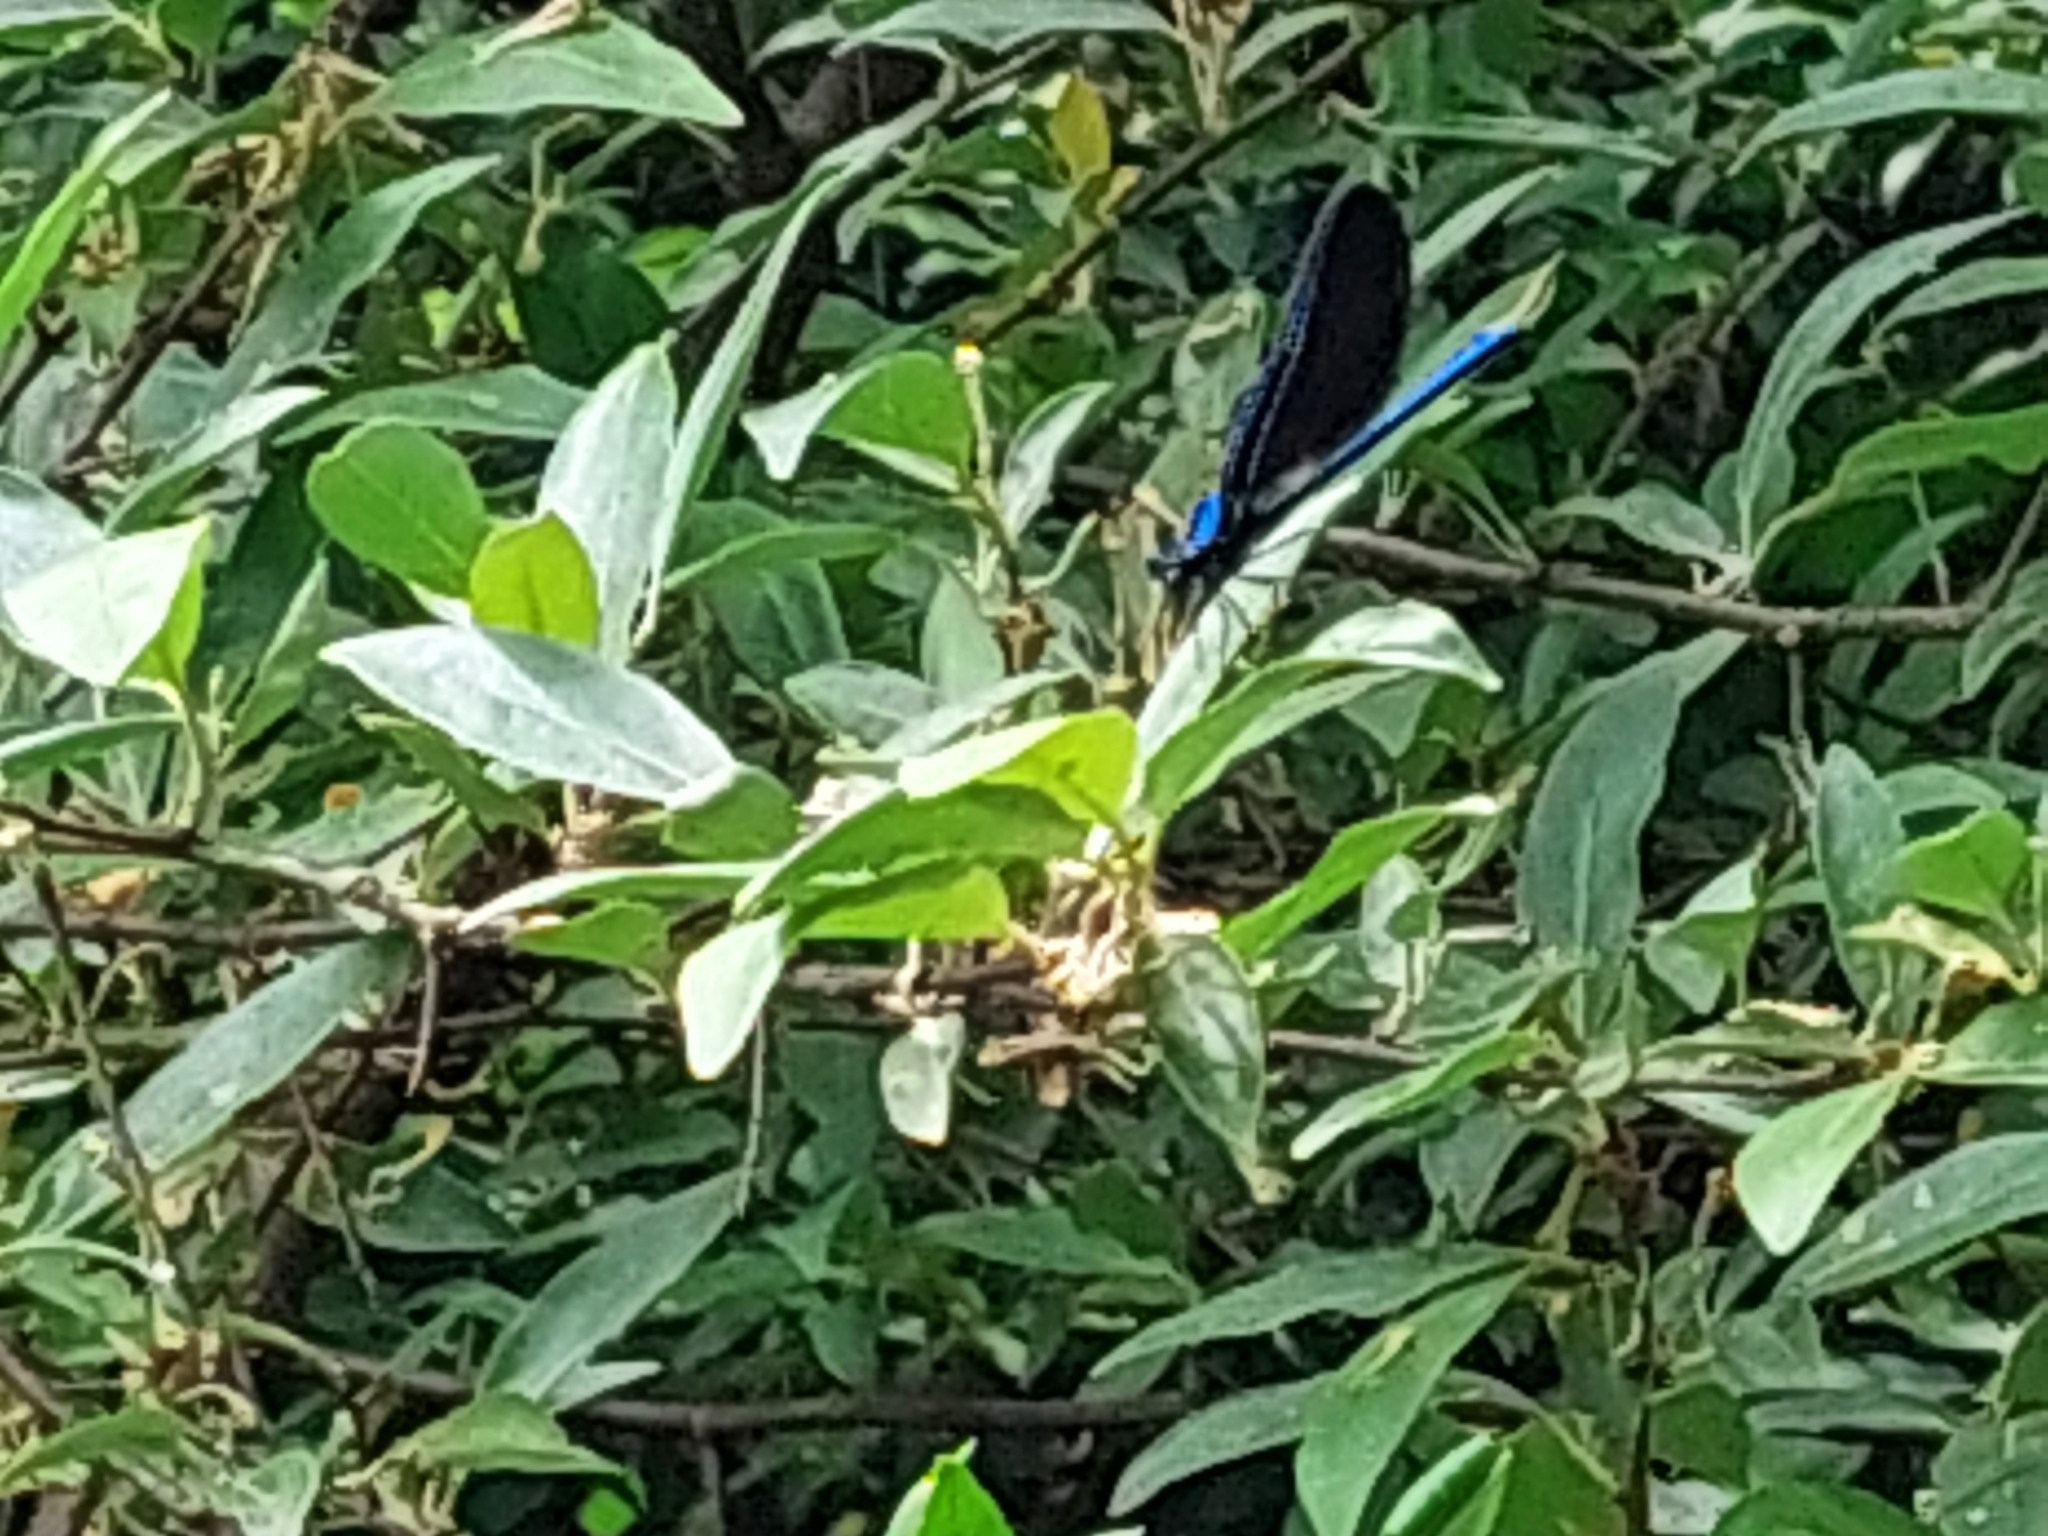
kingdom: Animalia
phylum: Arthropoda
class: Insecta
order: Odonata
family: Calopterygidae
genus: Calopteryx
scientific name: Calopteryx maculata
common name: Ebony jewelwing
